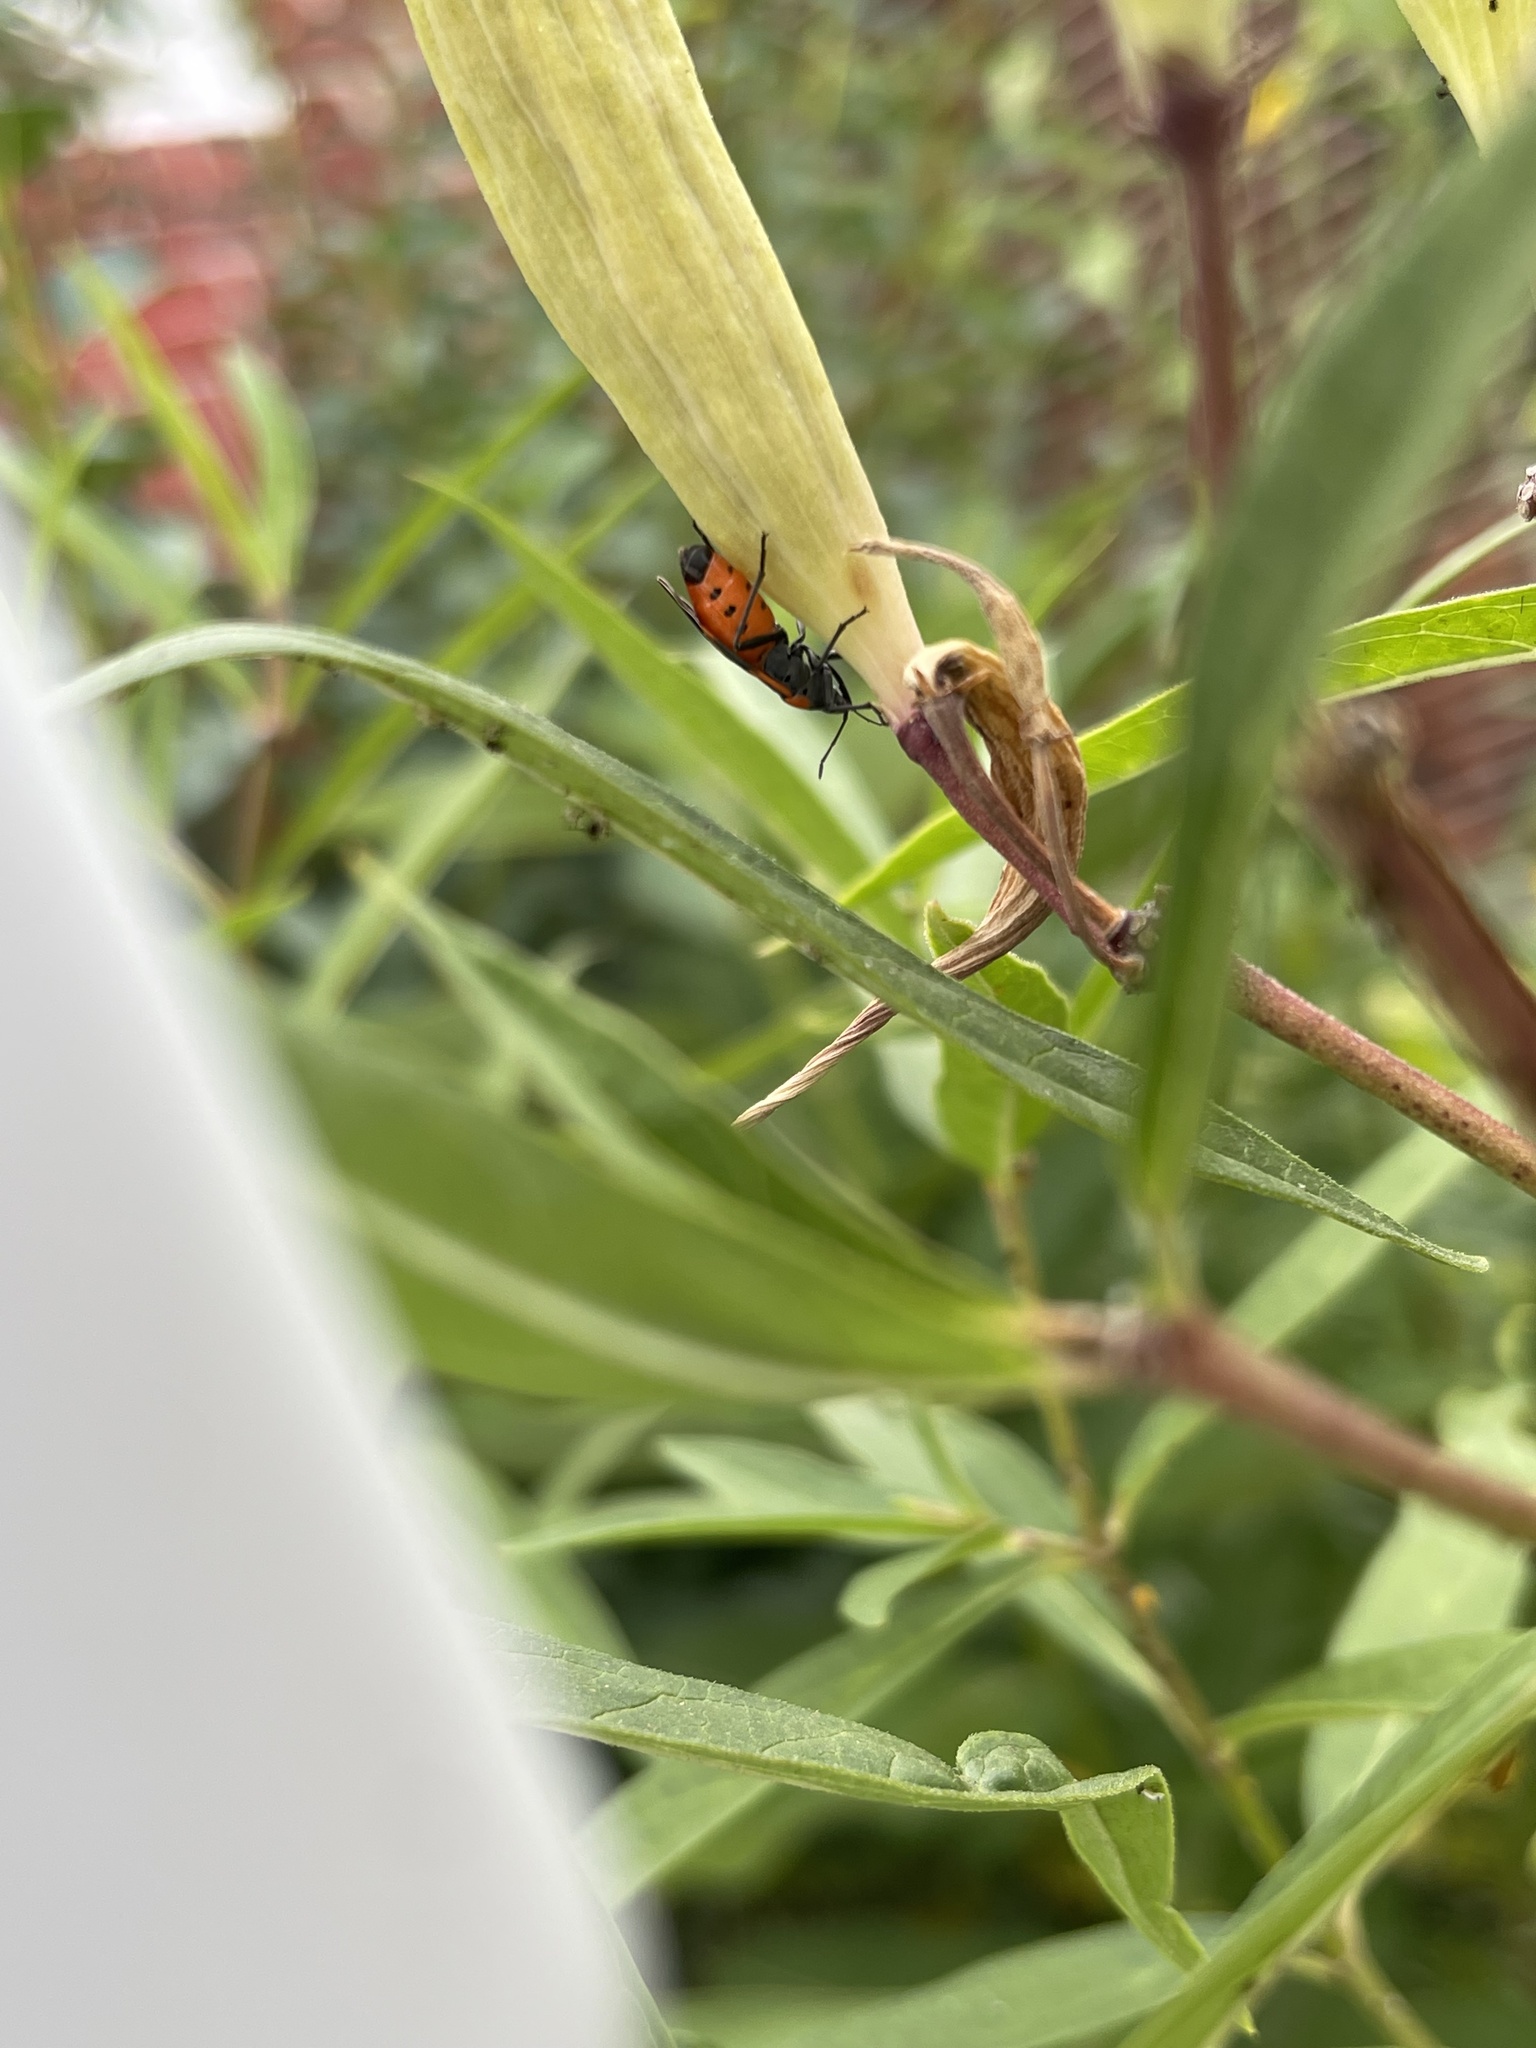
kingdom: Animalia
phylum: Arthropoda
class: Insecta
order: Hemiptera
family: Lygaeidae
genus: Lygaeus
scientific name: Lygaeus kalmii
